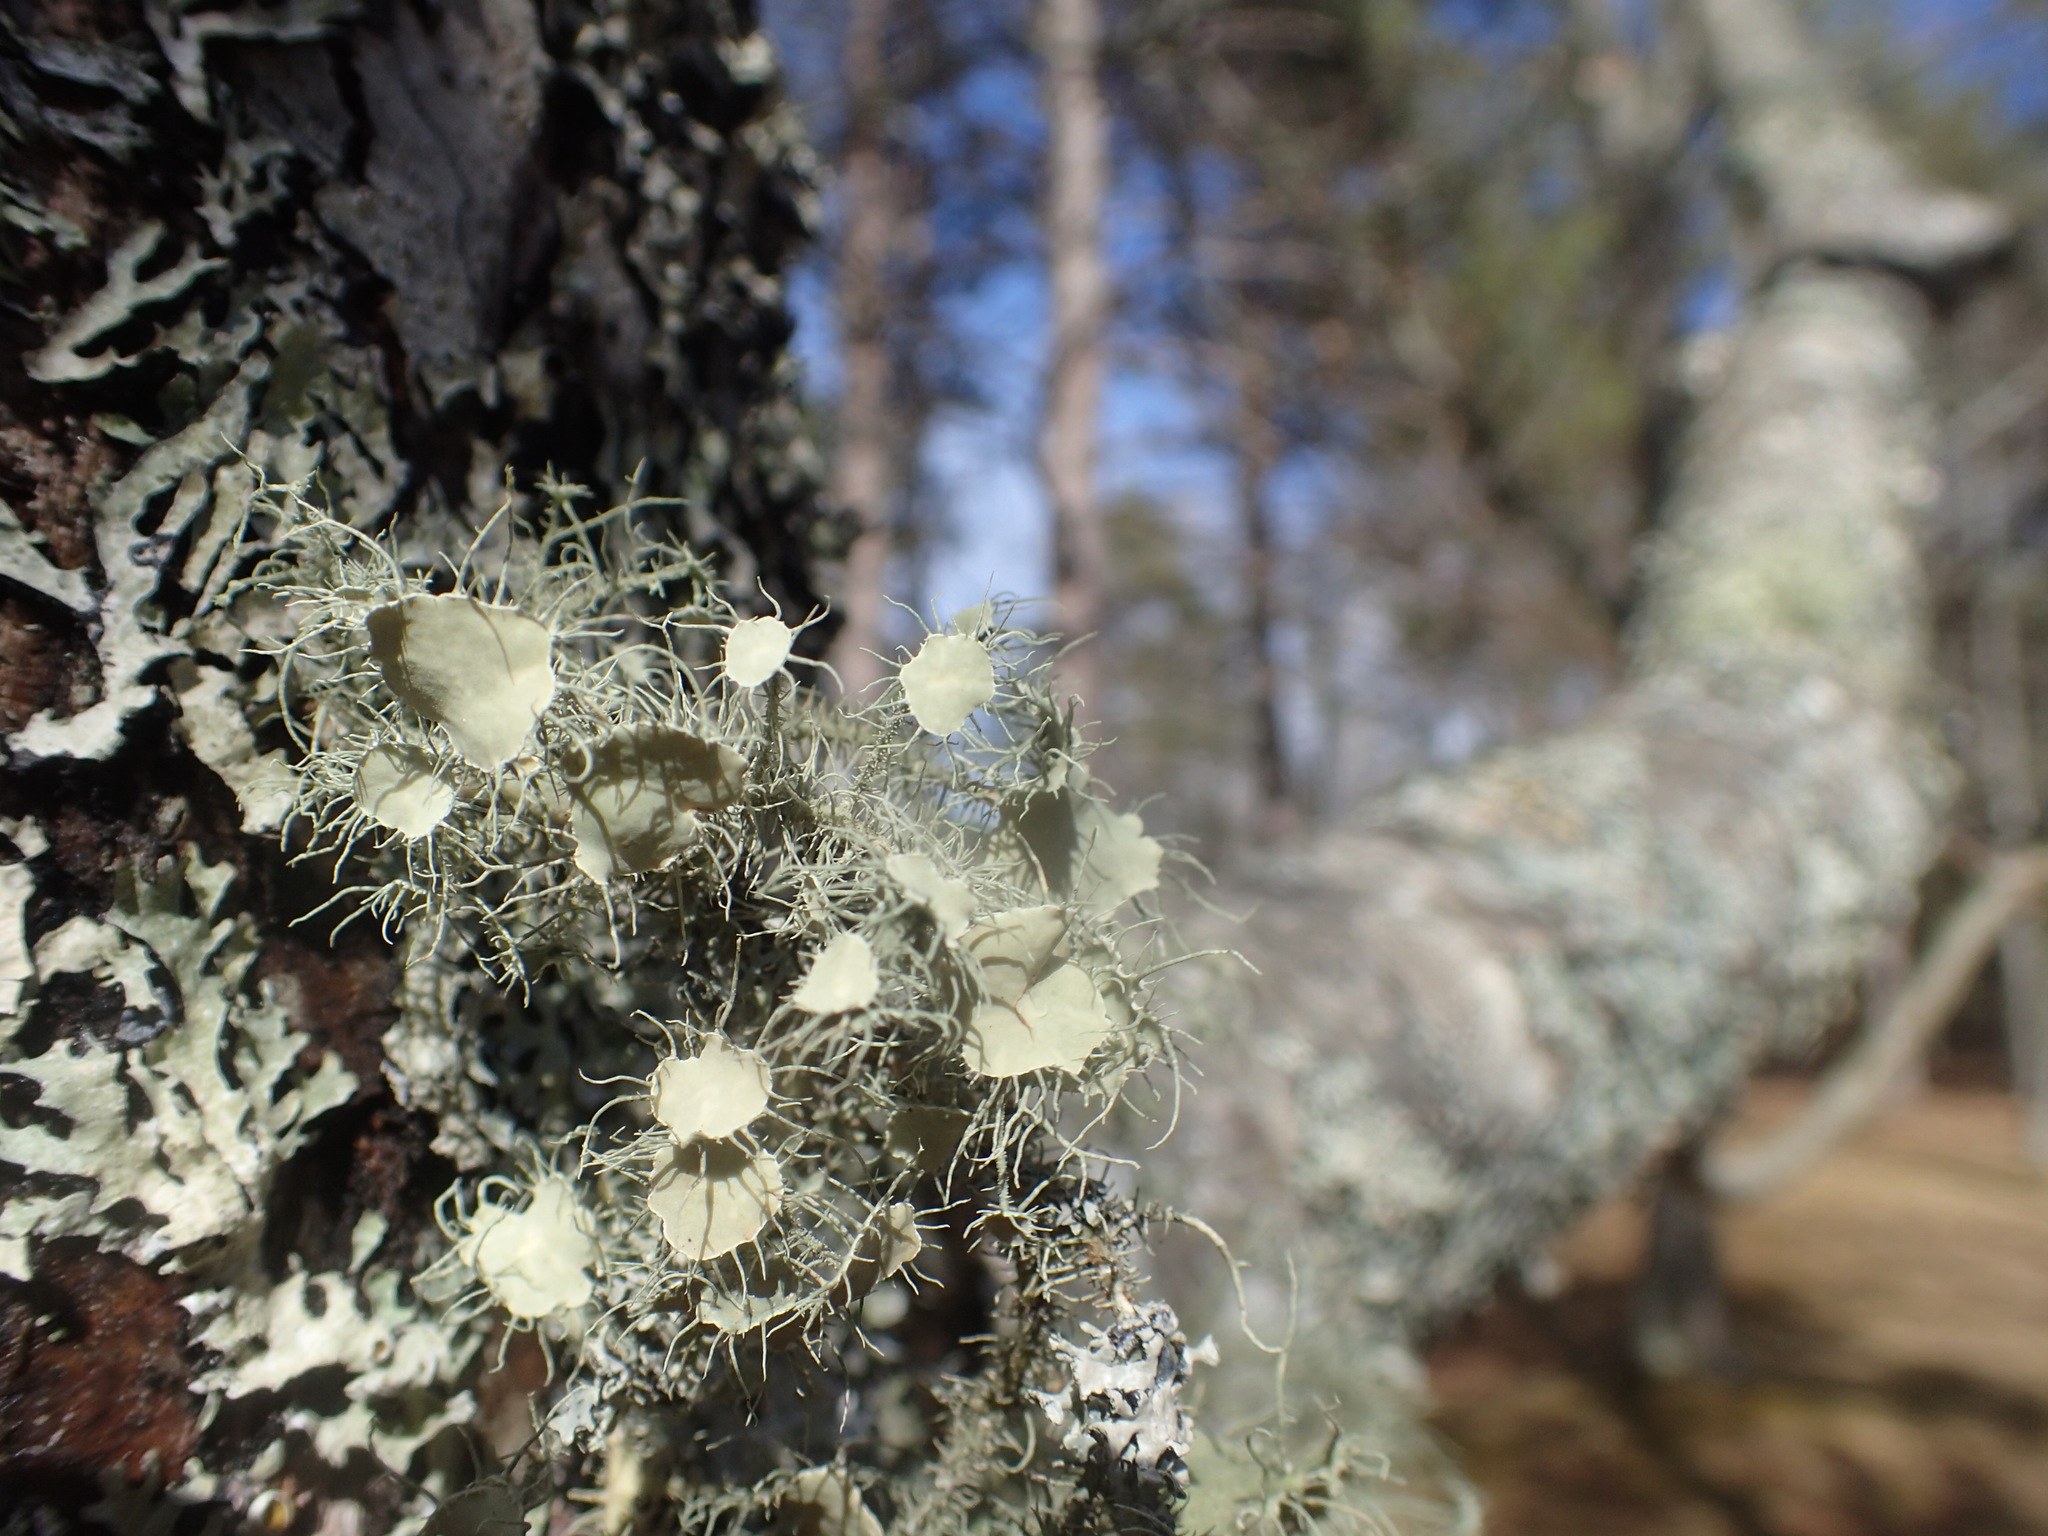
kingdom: Fungi
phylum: Ascomycota
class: Lecanoromycetes
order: Lecanorales
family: Parmeliaceae
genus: Usnea
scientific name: Usnea strigosa
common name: Bushy beard lichen
